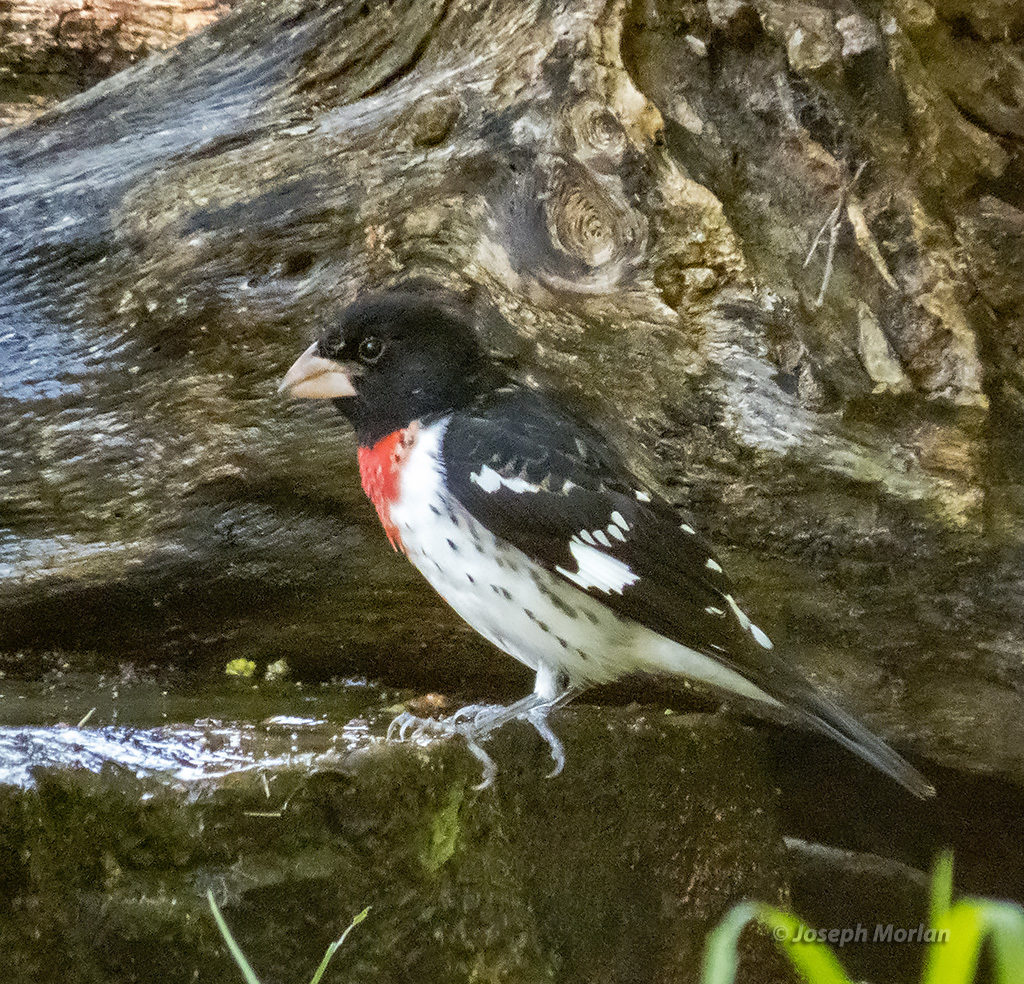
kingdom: Animalia
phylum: Chordata
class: Aves
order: Passeriformes
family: Cardinalidae
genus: Pheucticus
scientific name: Pheucticus ludovicianus
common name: Rose-breasted grosbeak
